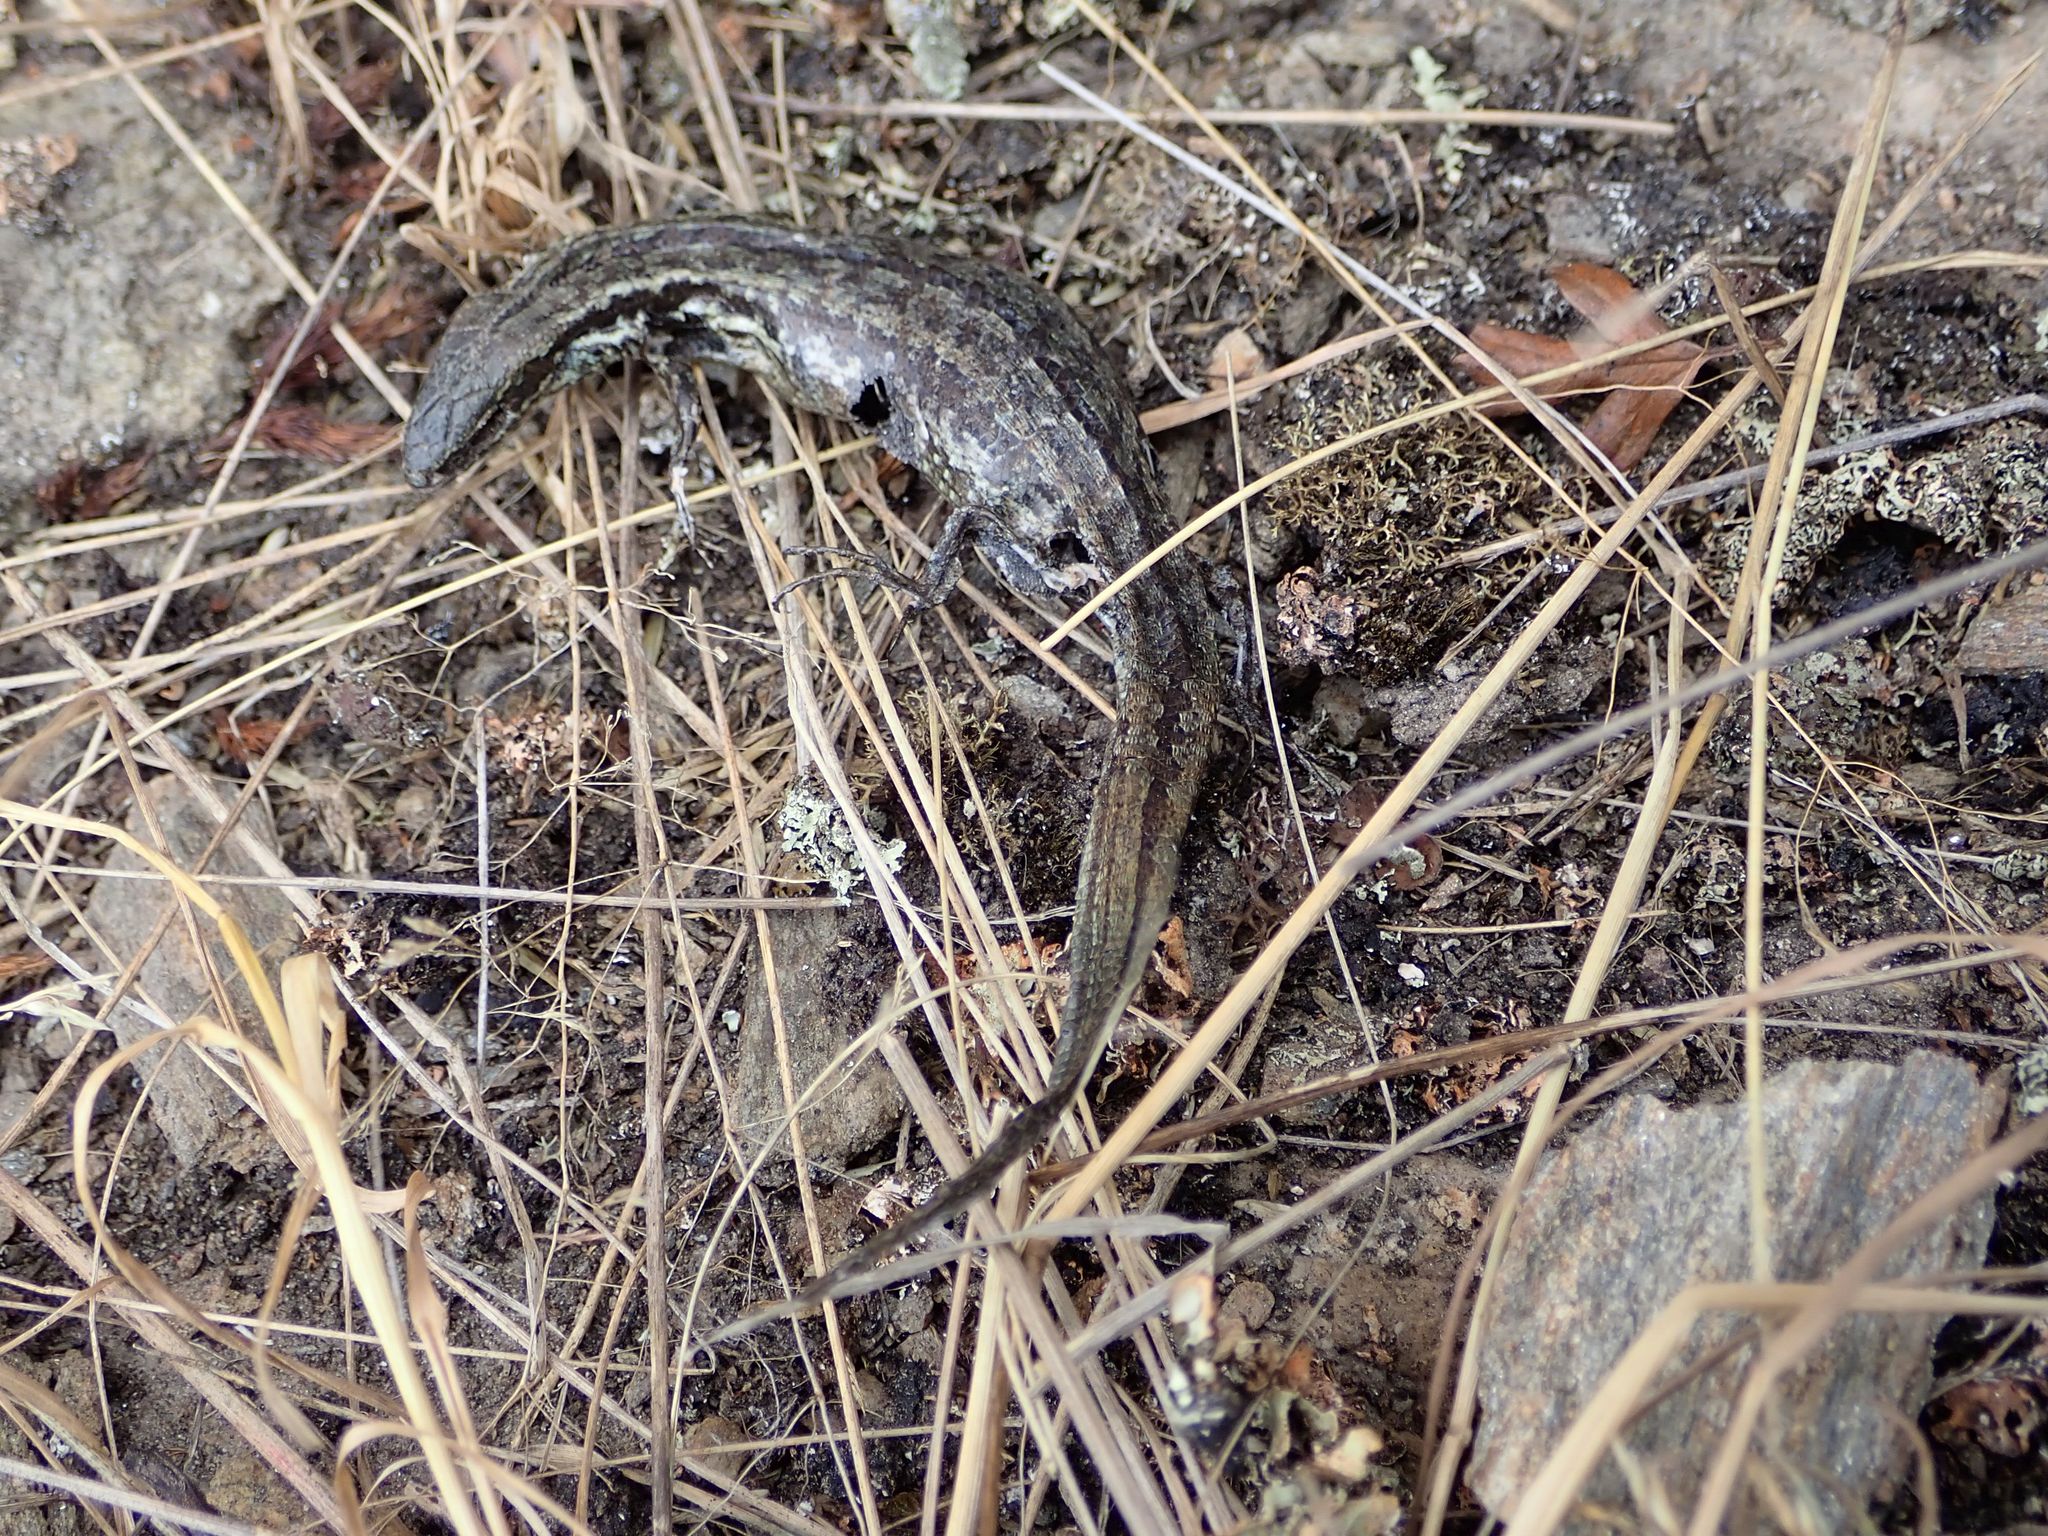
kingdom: Animalia
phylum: Chordata
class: Squamata
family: Scincidae
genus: Oligosoma
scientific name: Oligosoma maccanni
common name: Mccann’s skink
